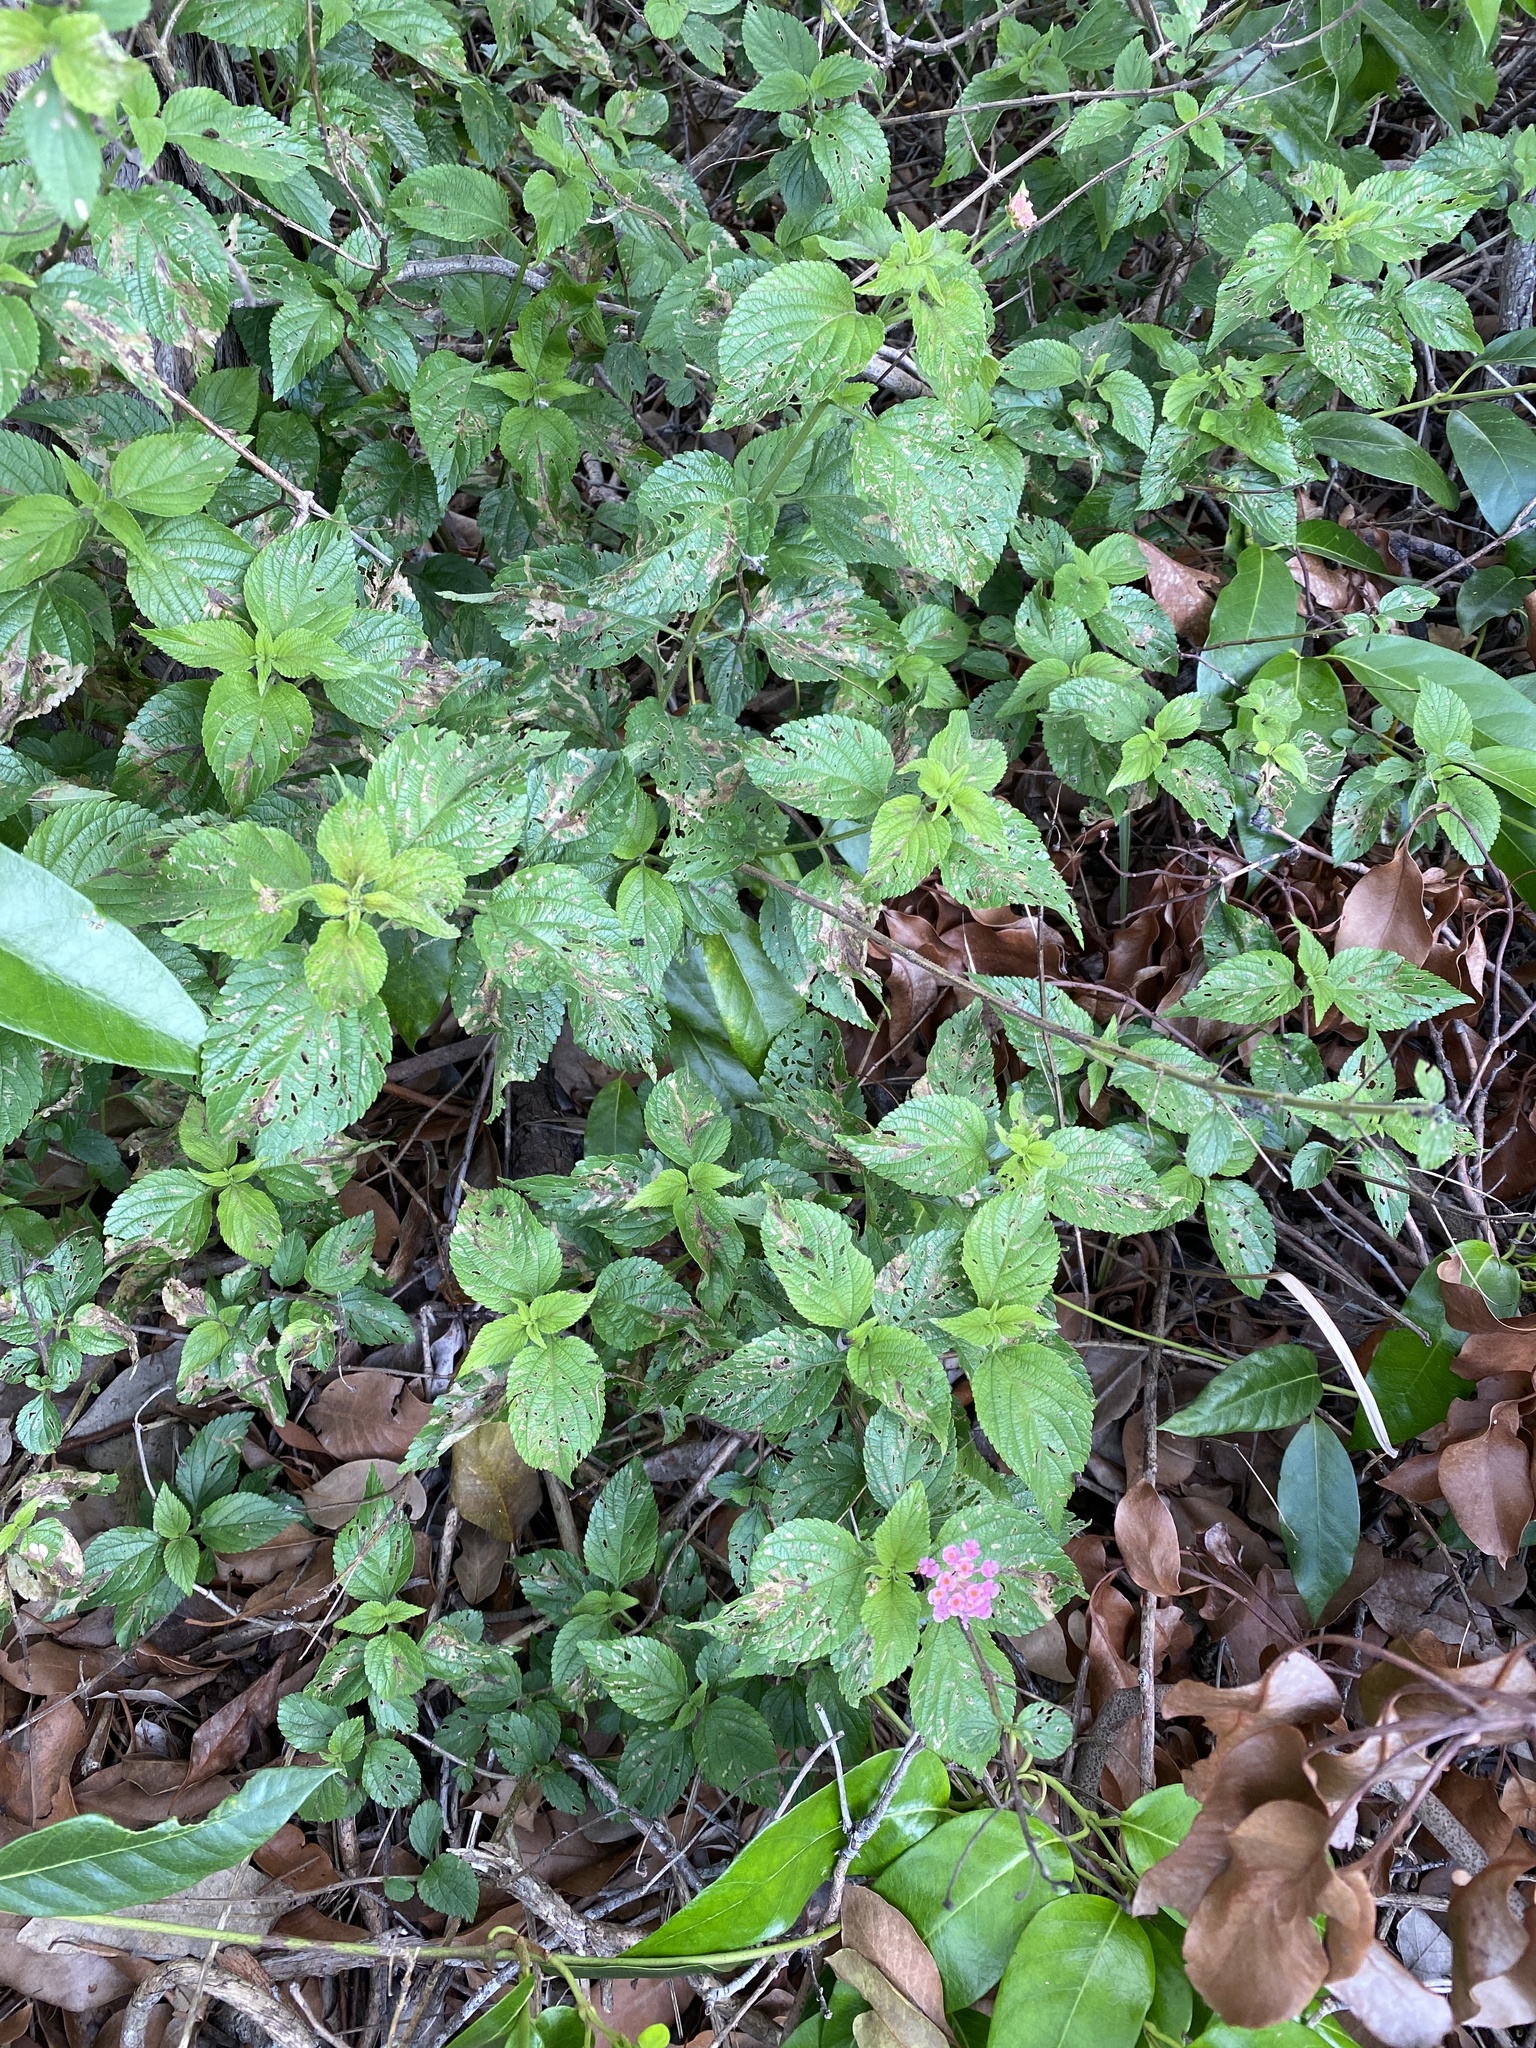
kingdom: Plantae
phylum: Tracheophyta
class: Magnoliopsida
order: Lamiales
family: Verbenaceae
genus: Lantana
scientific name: Lantana camara
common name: Lantana
